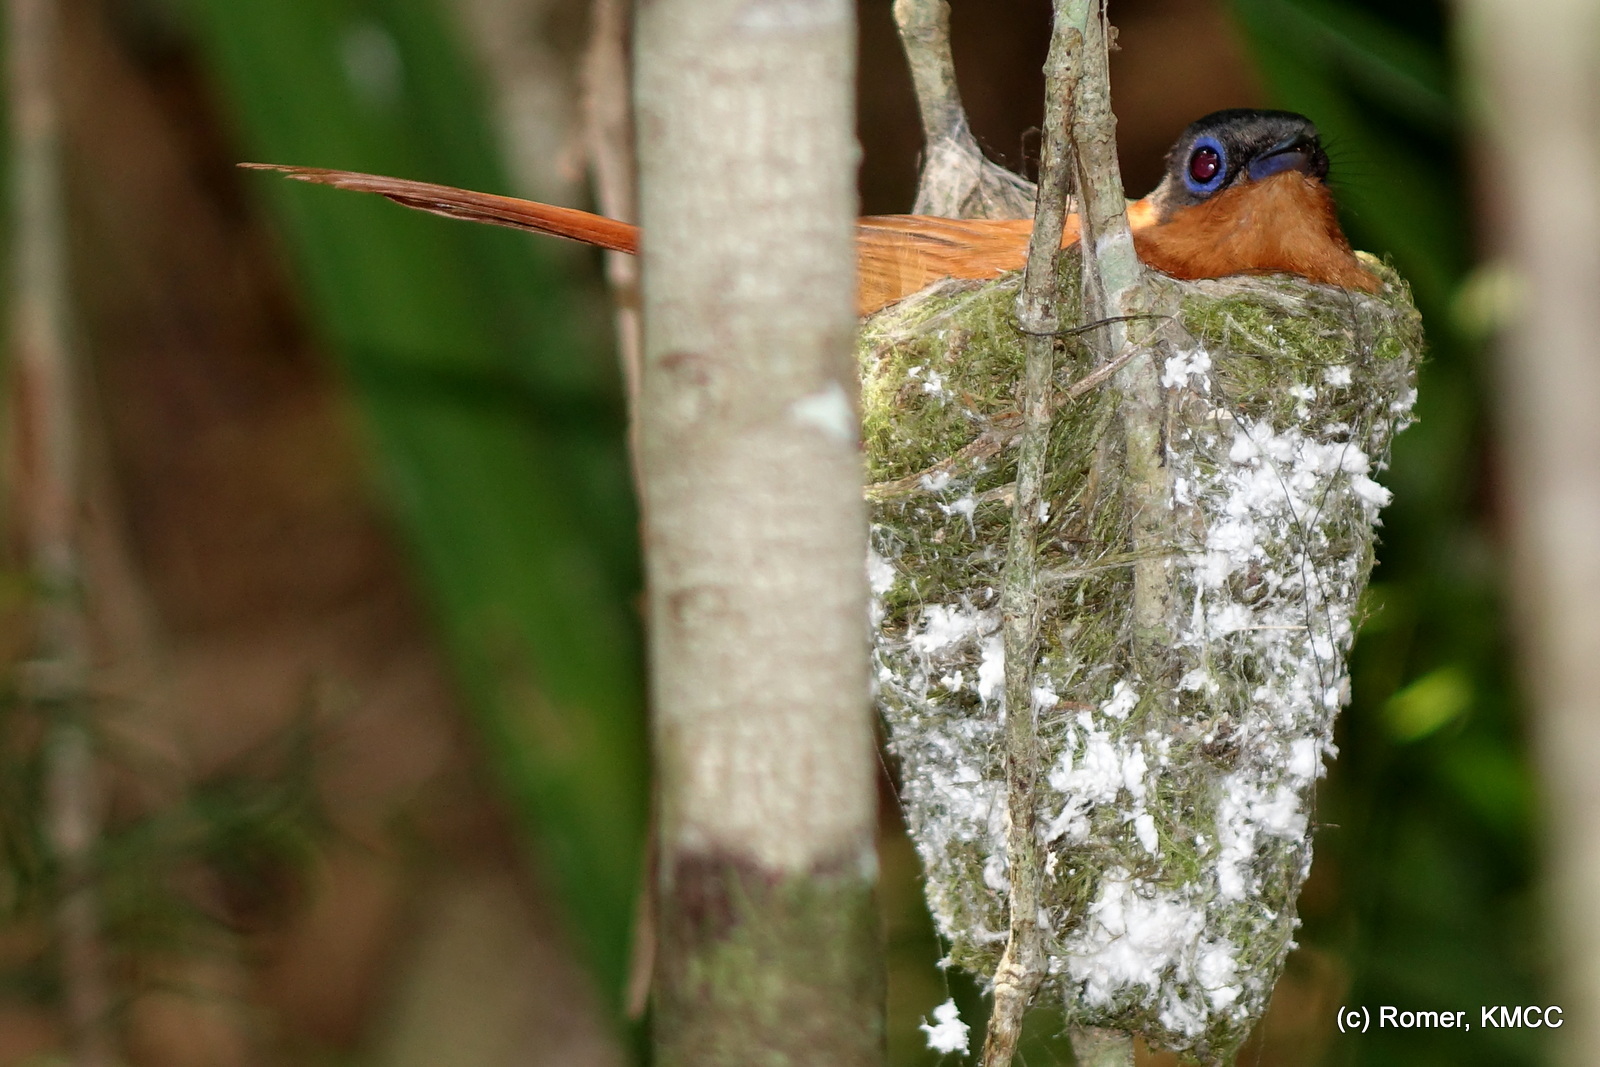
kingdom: Animalia
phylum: Chordata
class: Aves
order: Passeriformes
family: Monarchidae
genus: Terpsiphone
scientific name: Terpsiphone mutata
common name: Malagasy paradise flycatcher
